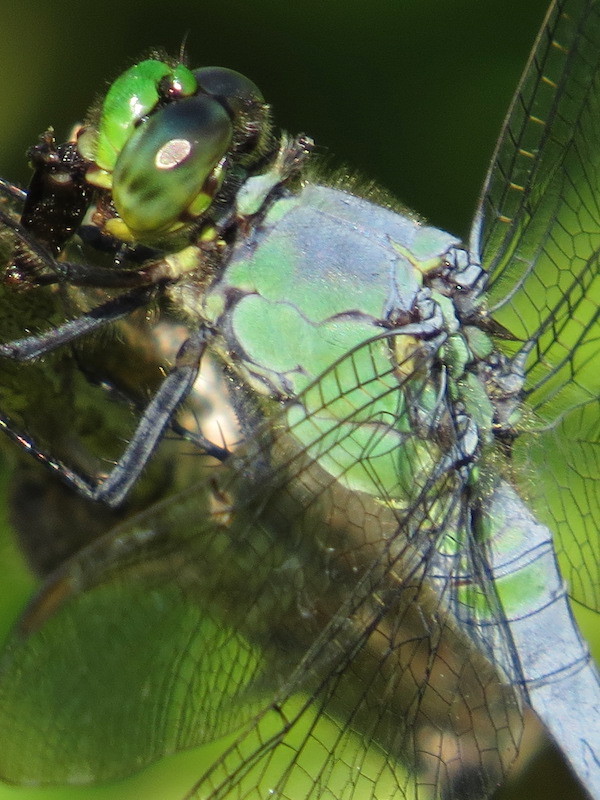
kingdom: Animalia
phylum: Arthropoda
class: Insecta
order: Odonata
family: Libellulidae
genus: Erythemis
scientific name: Erythemis simplicicollis
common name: Eastern pondhawk
